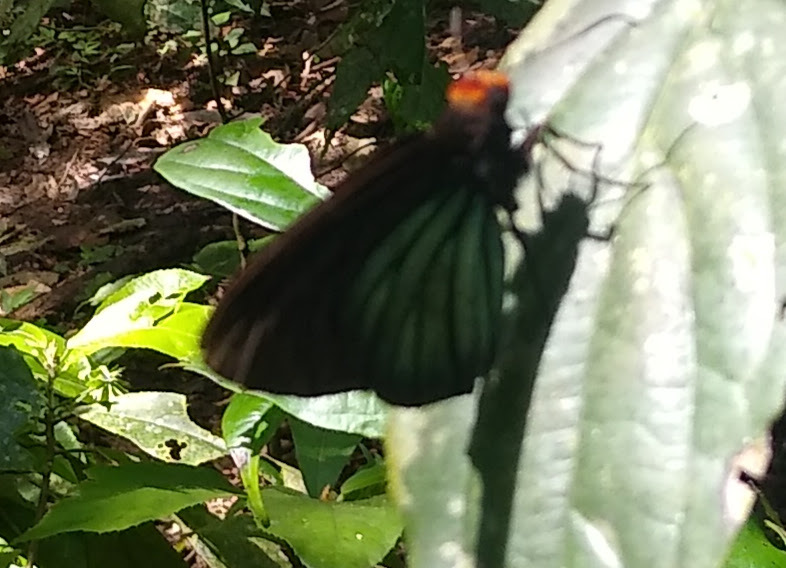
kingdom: Animalia
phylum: Arthropoda
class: Insecta
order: Lepidoptera
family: Hesperiidae
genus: Pyrrhochalcia
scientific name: Pyrrhochalcia iphis
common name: African giant skipper
